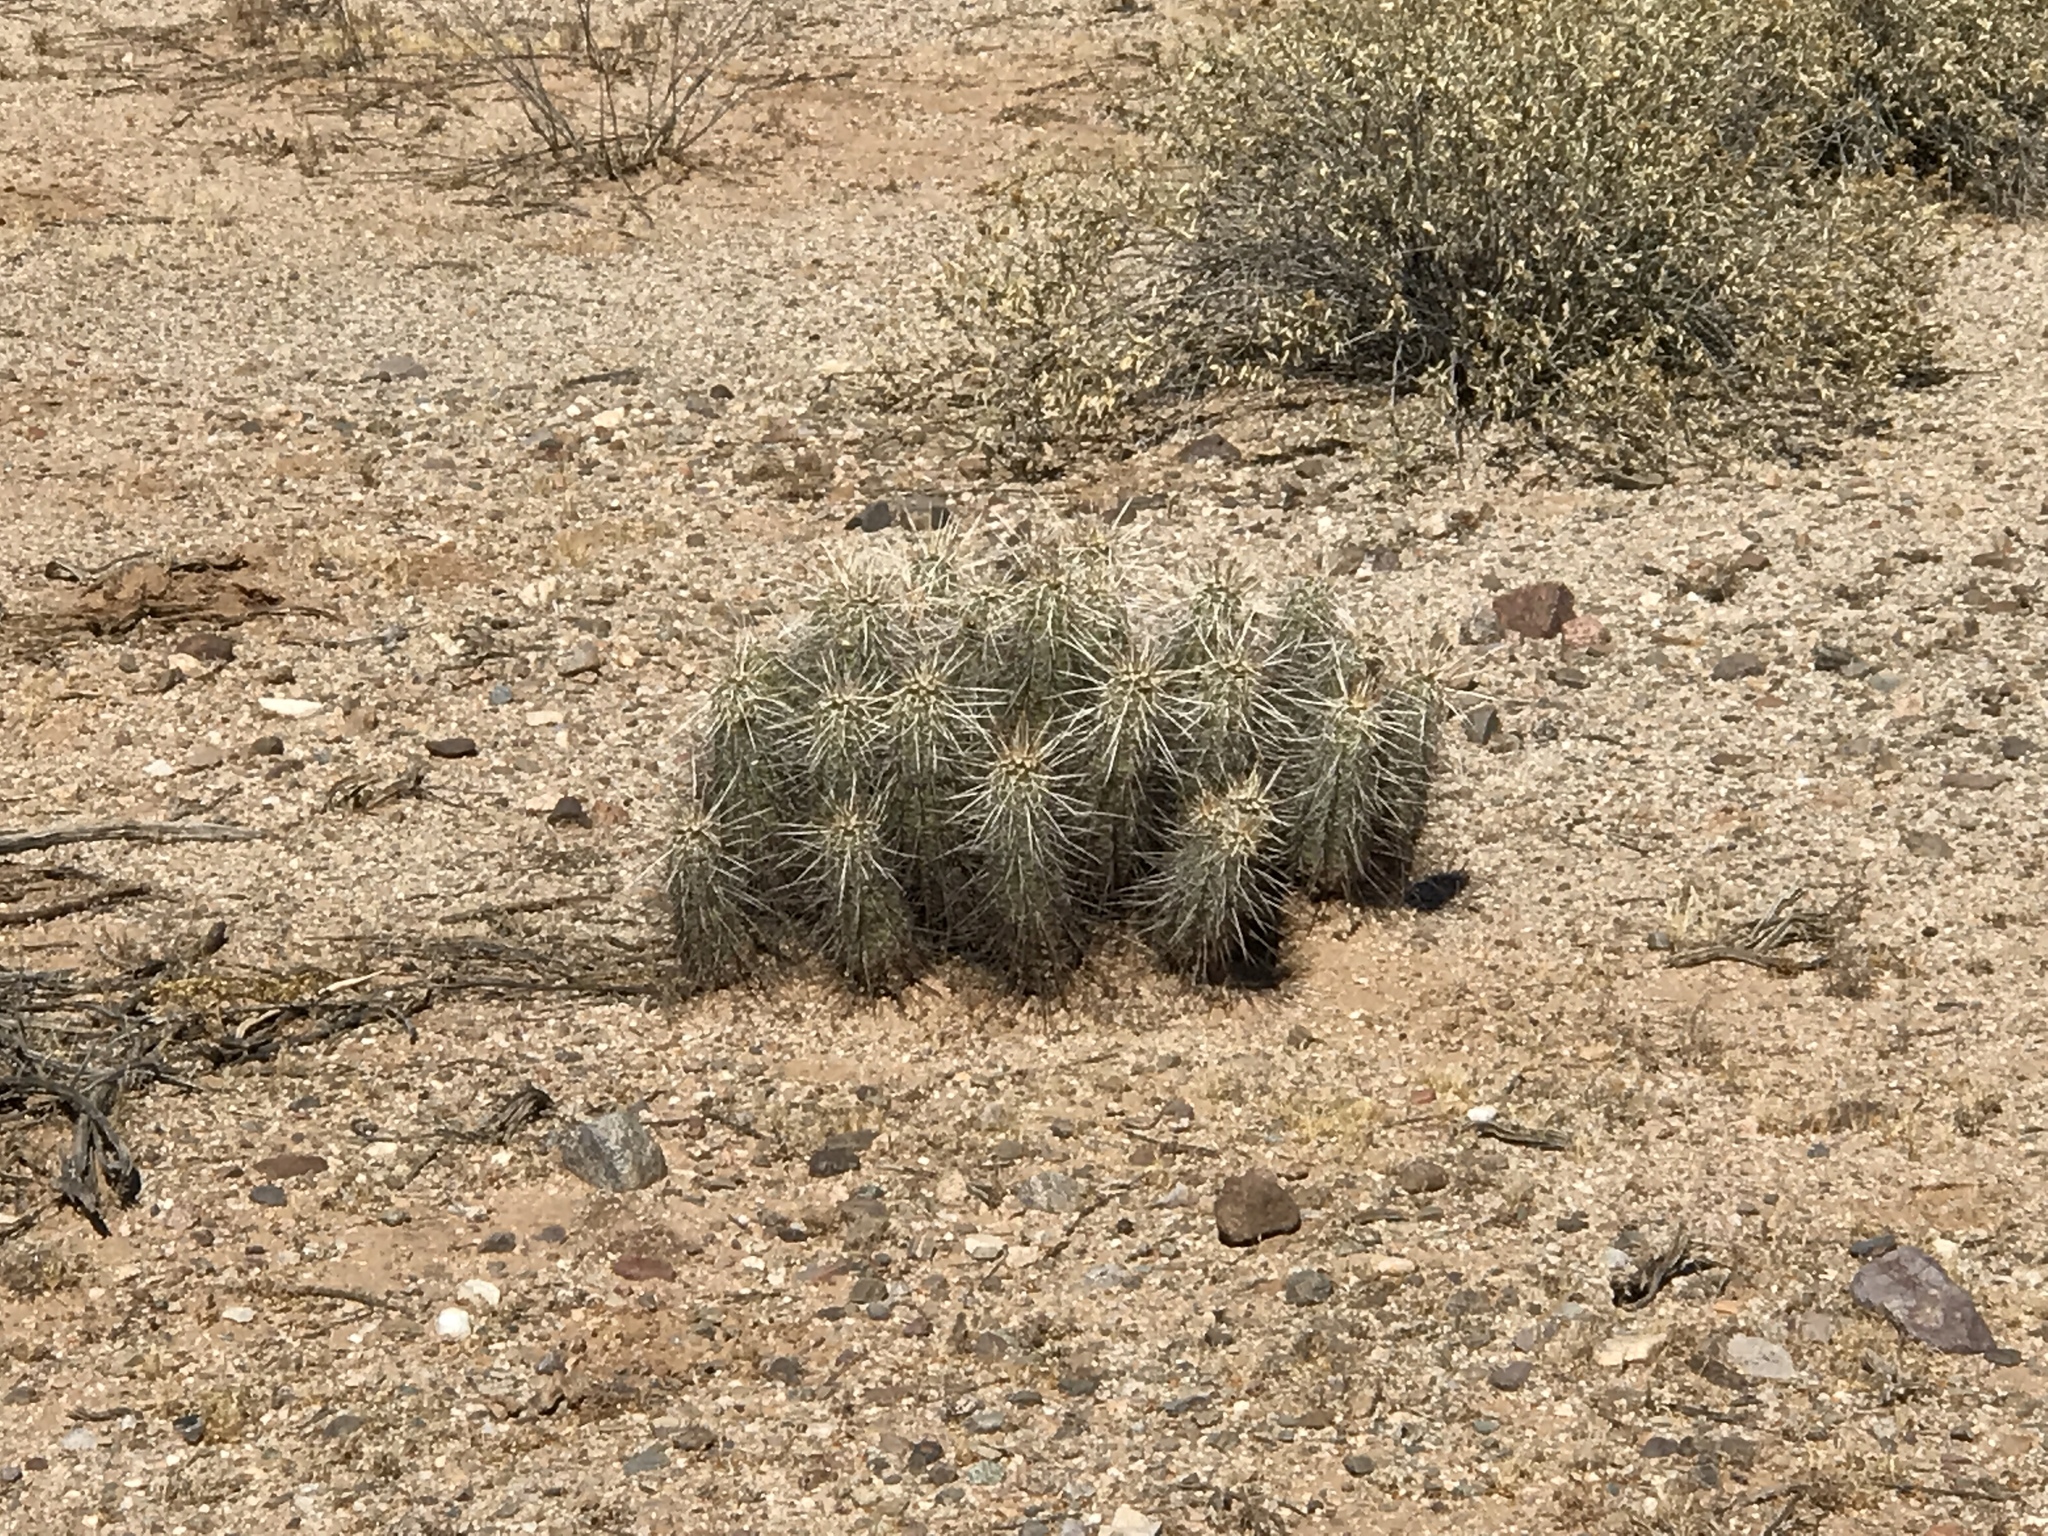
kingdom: Plantae
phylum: Tracheophyta
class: Magnoliopsida
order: Caryophyllales
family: Cactaceae
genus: Echinocereus
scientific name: Echinocereus engelmannii
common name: Engelmann's hedgehog cactus
